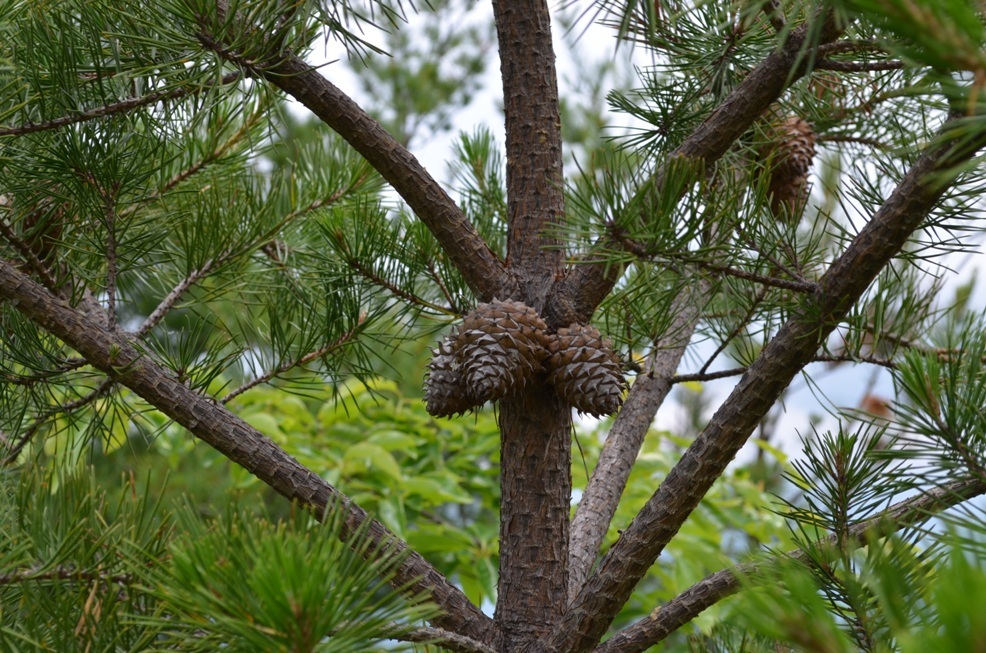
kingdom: Plantae
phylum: Tracheophyta
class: Pinopsida
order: Pinales
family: Pinaceae
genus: Pinus
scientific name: Pinus pungens
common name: Hickory pine
